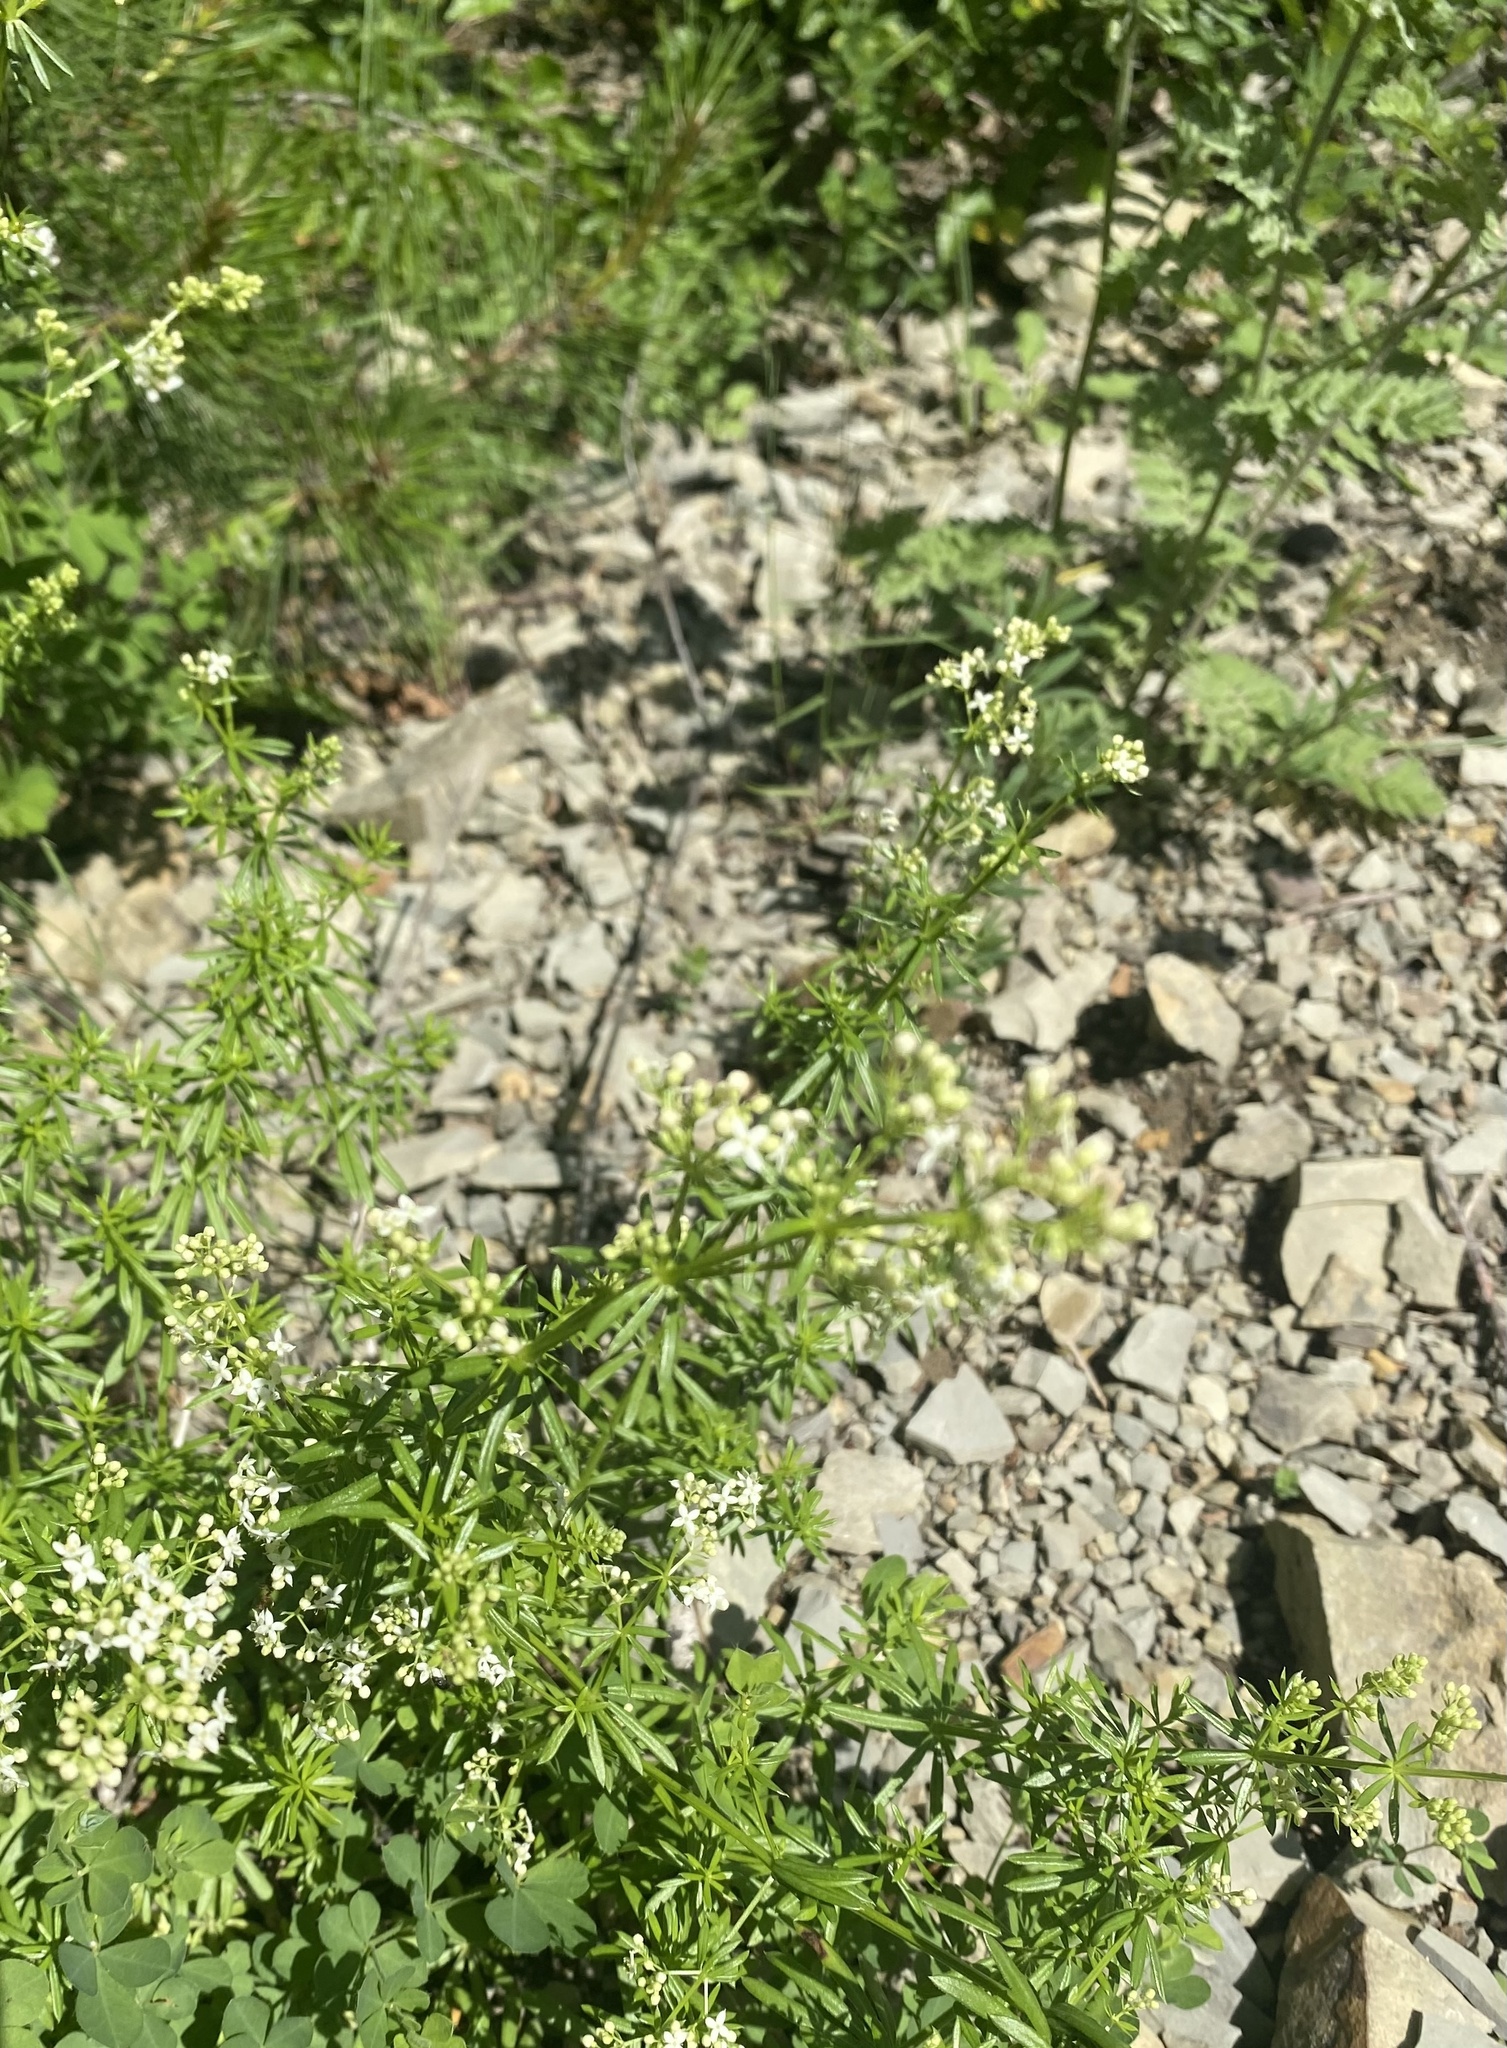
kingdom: Plantae
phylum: Tracheophyta
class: Magnoliopsida
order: Gentianales
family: Rubiaceae
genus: Galium
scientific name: Galium mollugo
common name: Hedge bedstraw
